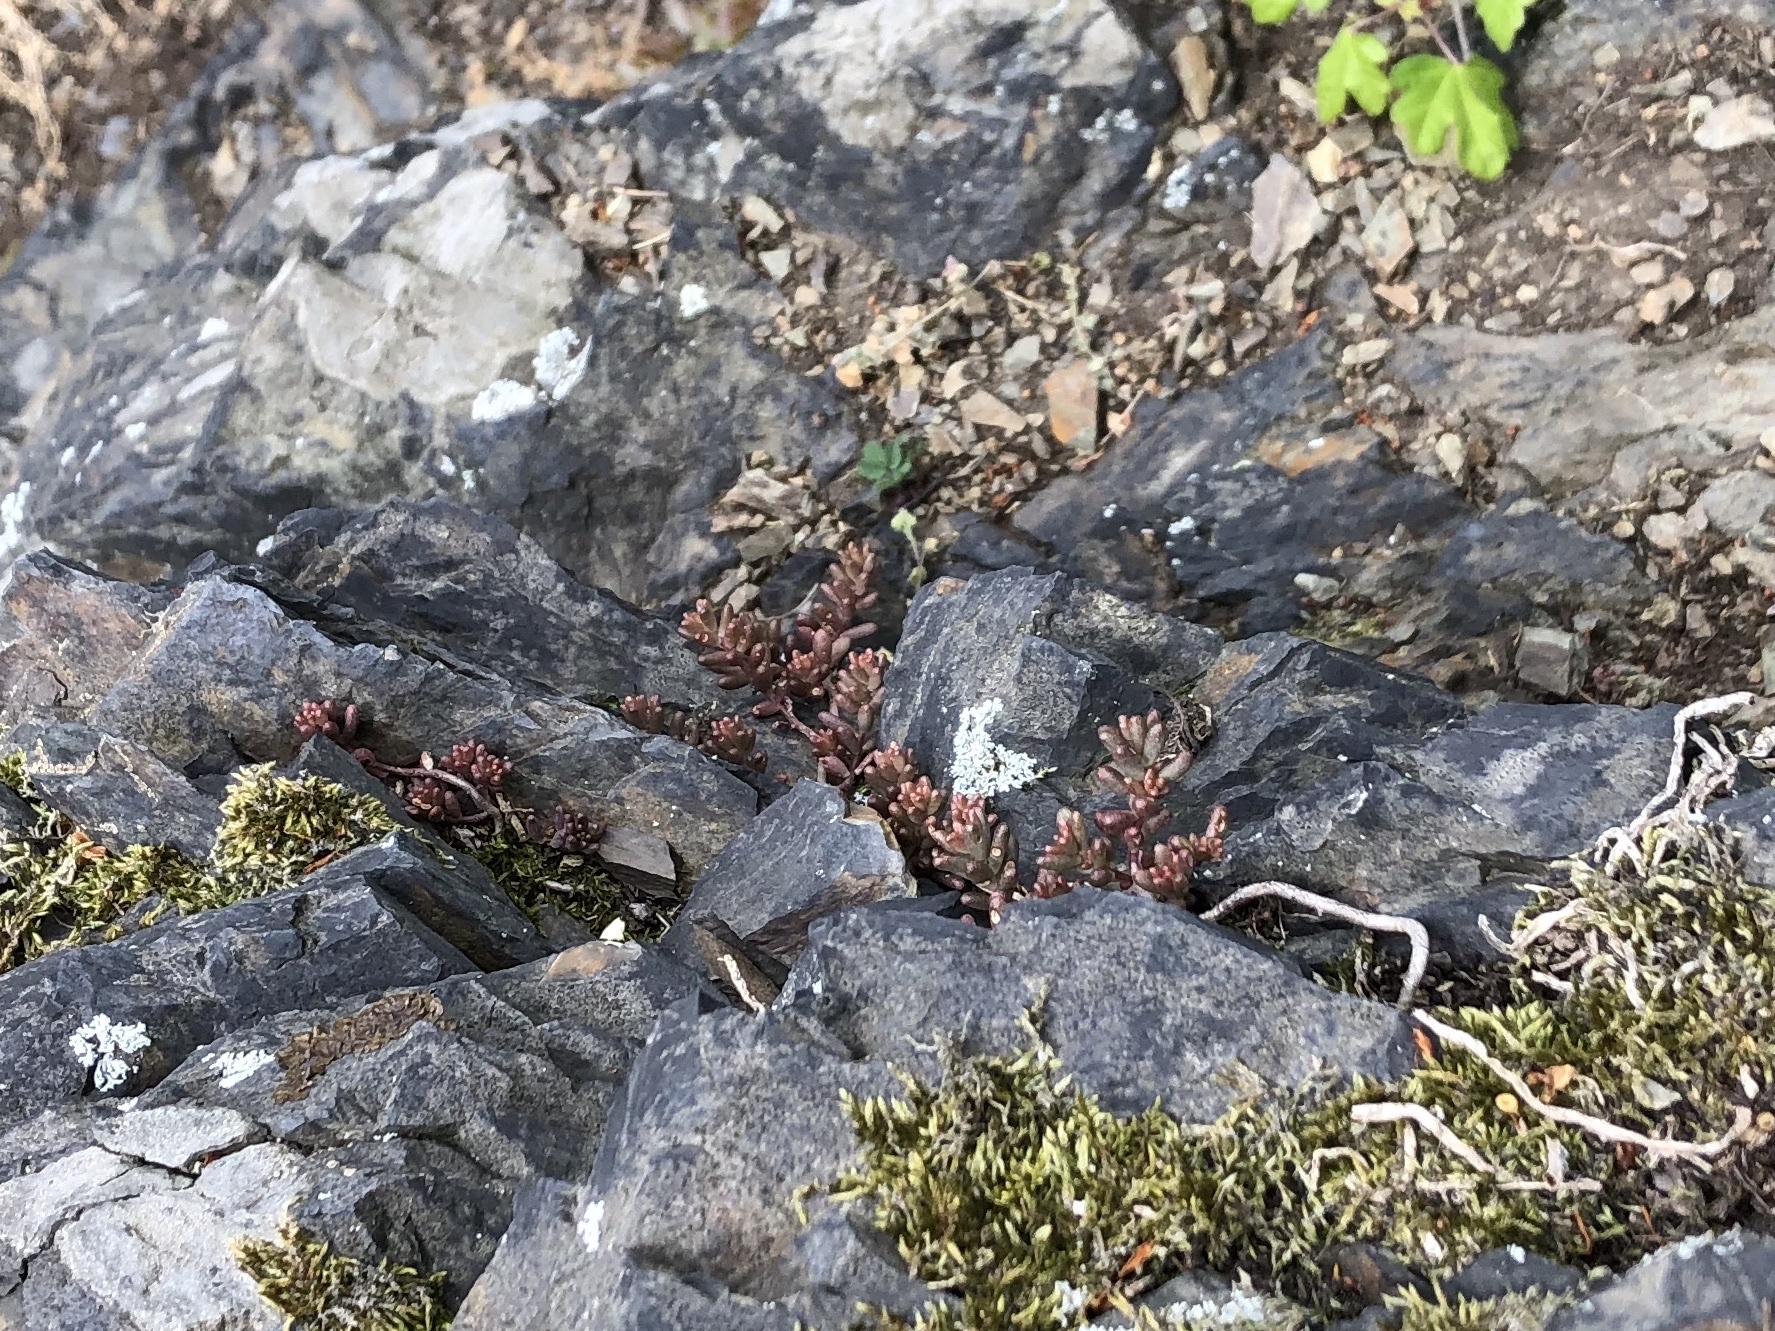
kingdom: Plantae
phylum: Tracheophyta
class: Magnoliopsida
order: Saxifragales
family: Crassulaceae
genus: Sedum
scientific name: Sedum album
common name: White stonecrop
